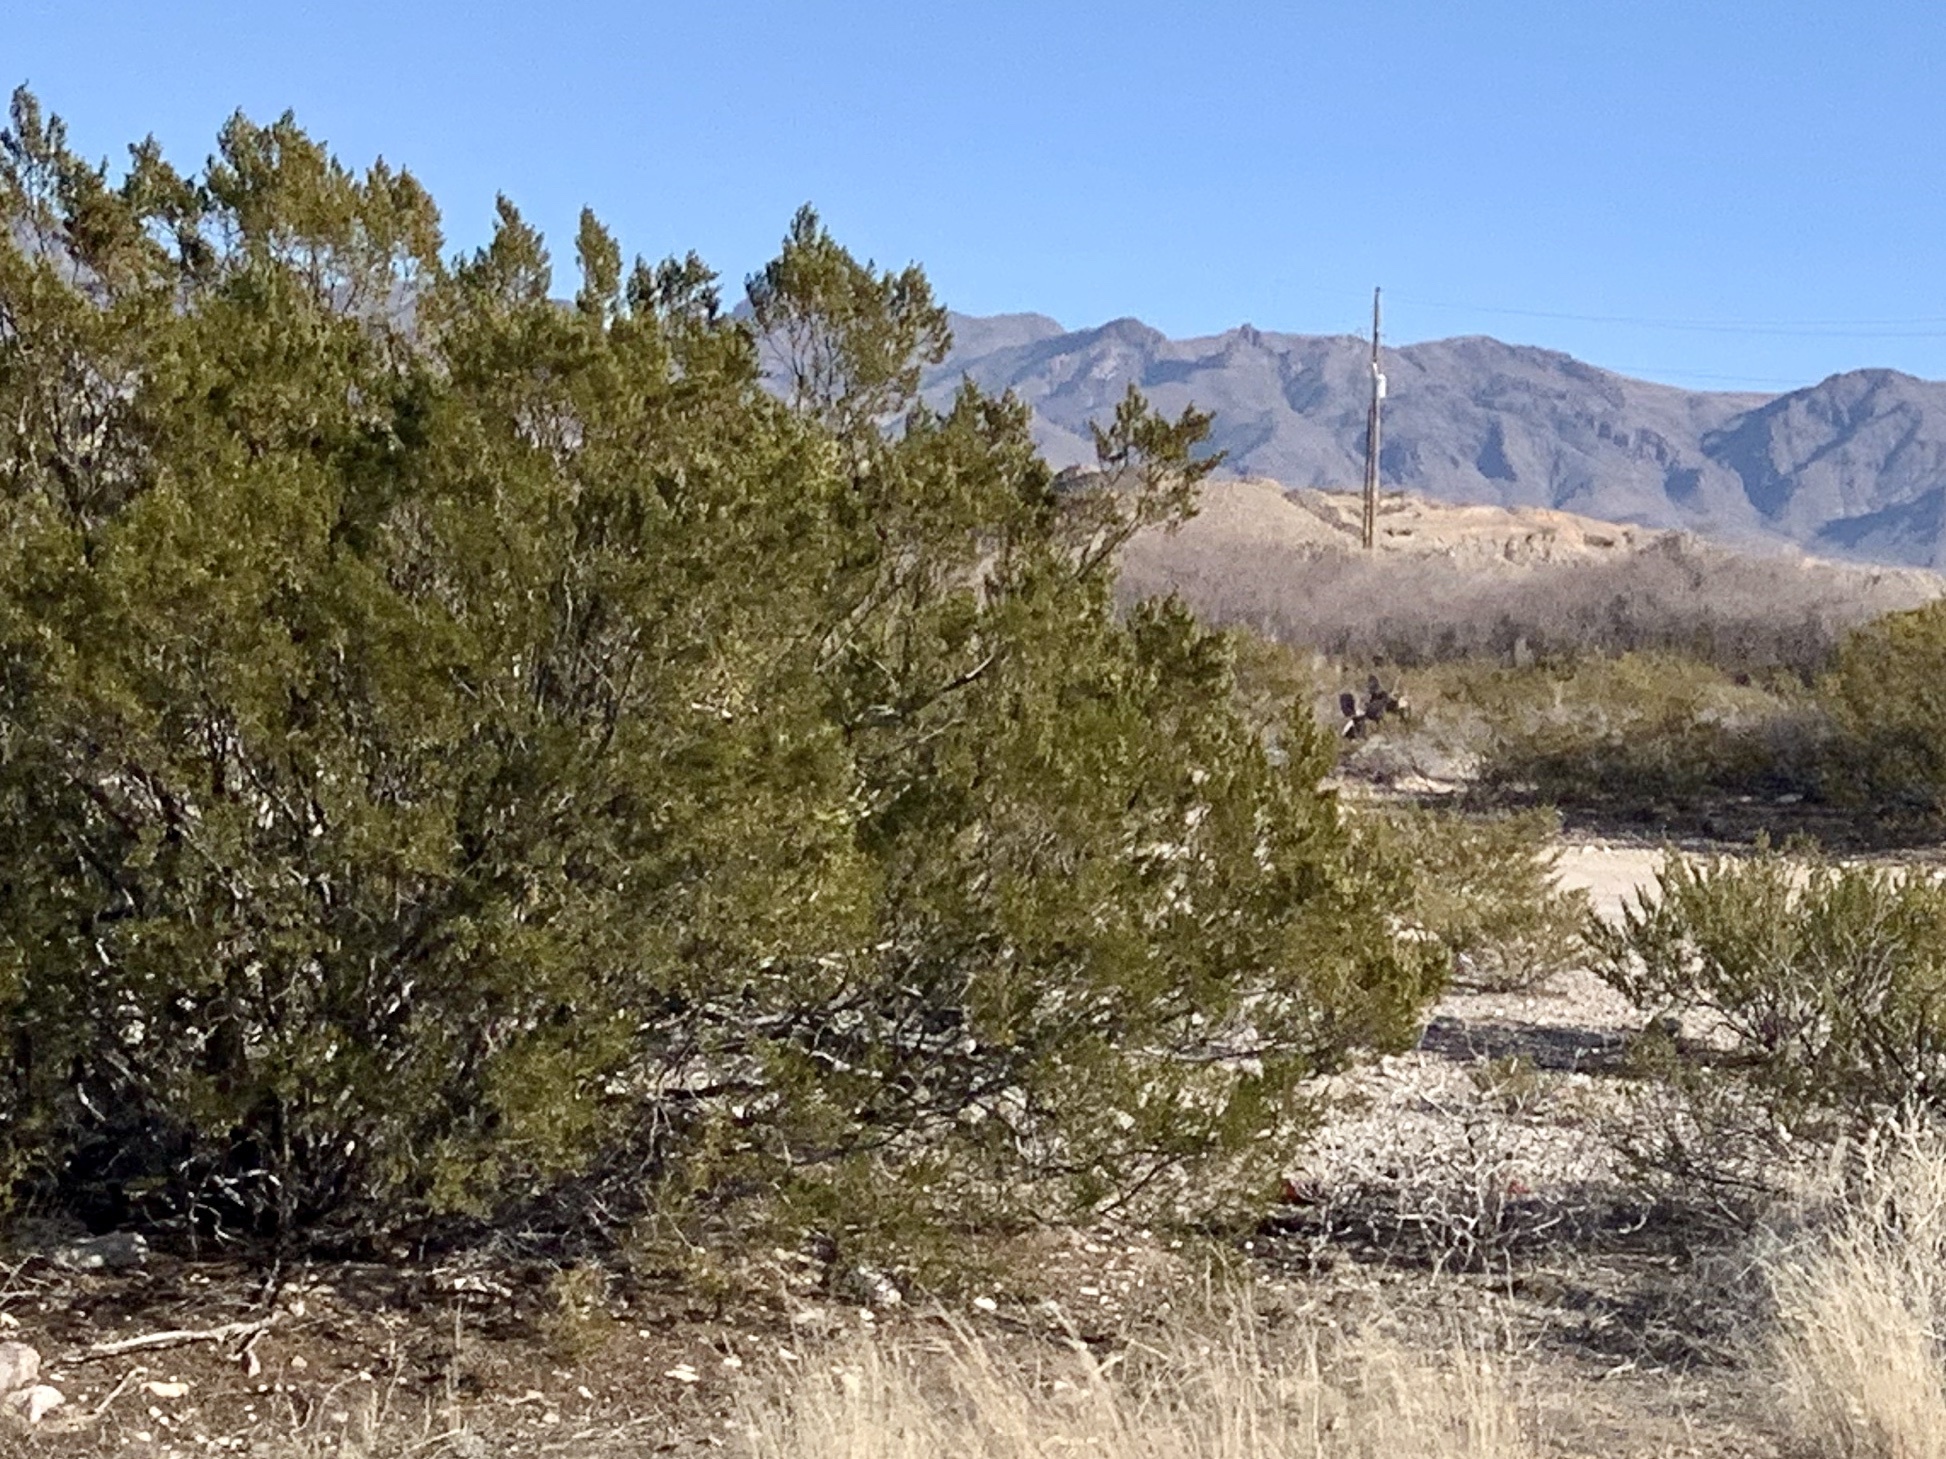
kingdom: Plantae
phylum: Tracheophyta
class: Magnoliopsida
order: Zygophyllales
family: Zygophyllaceae
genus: Larrea
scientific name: Larrea tridentata
